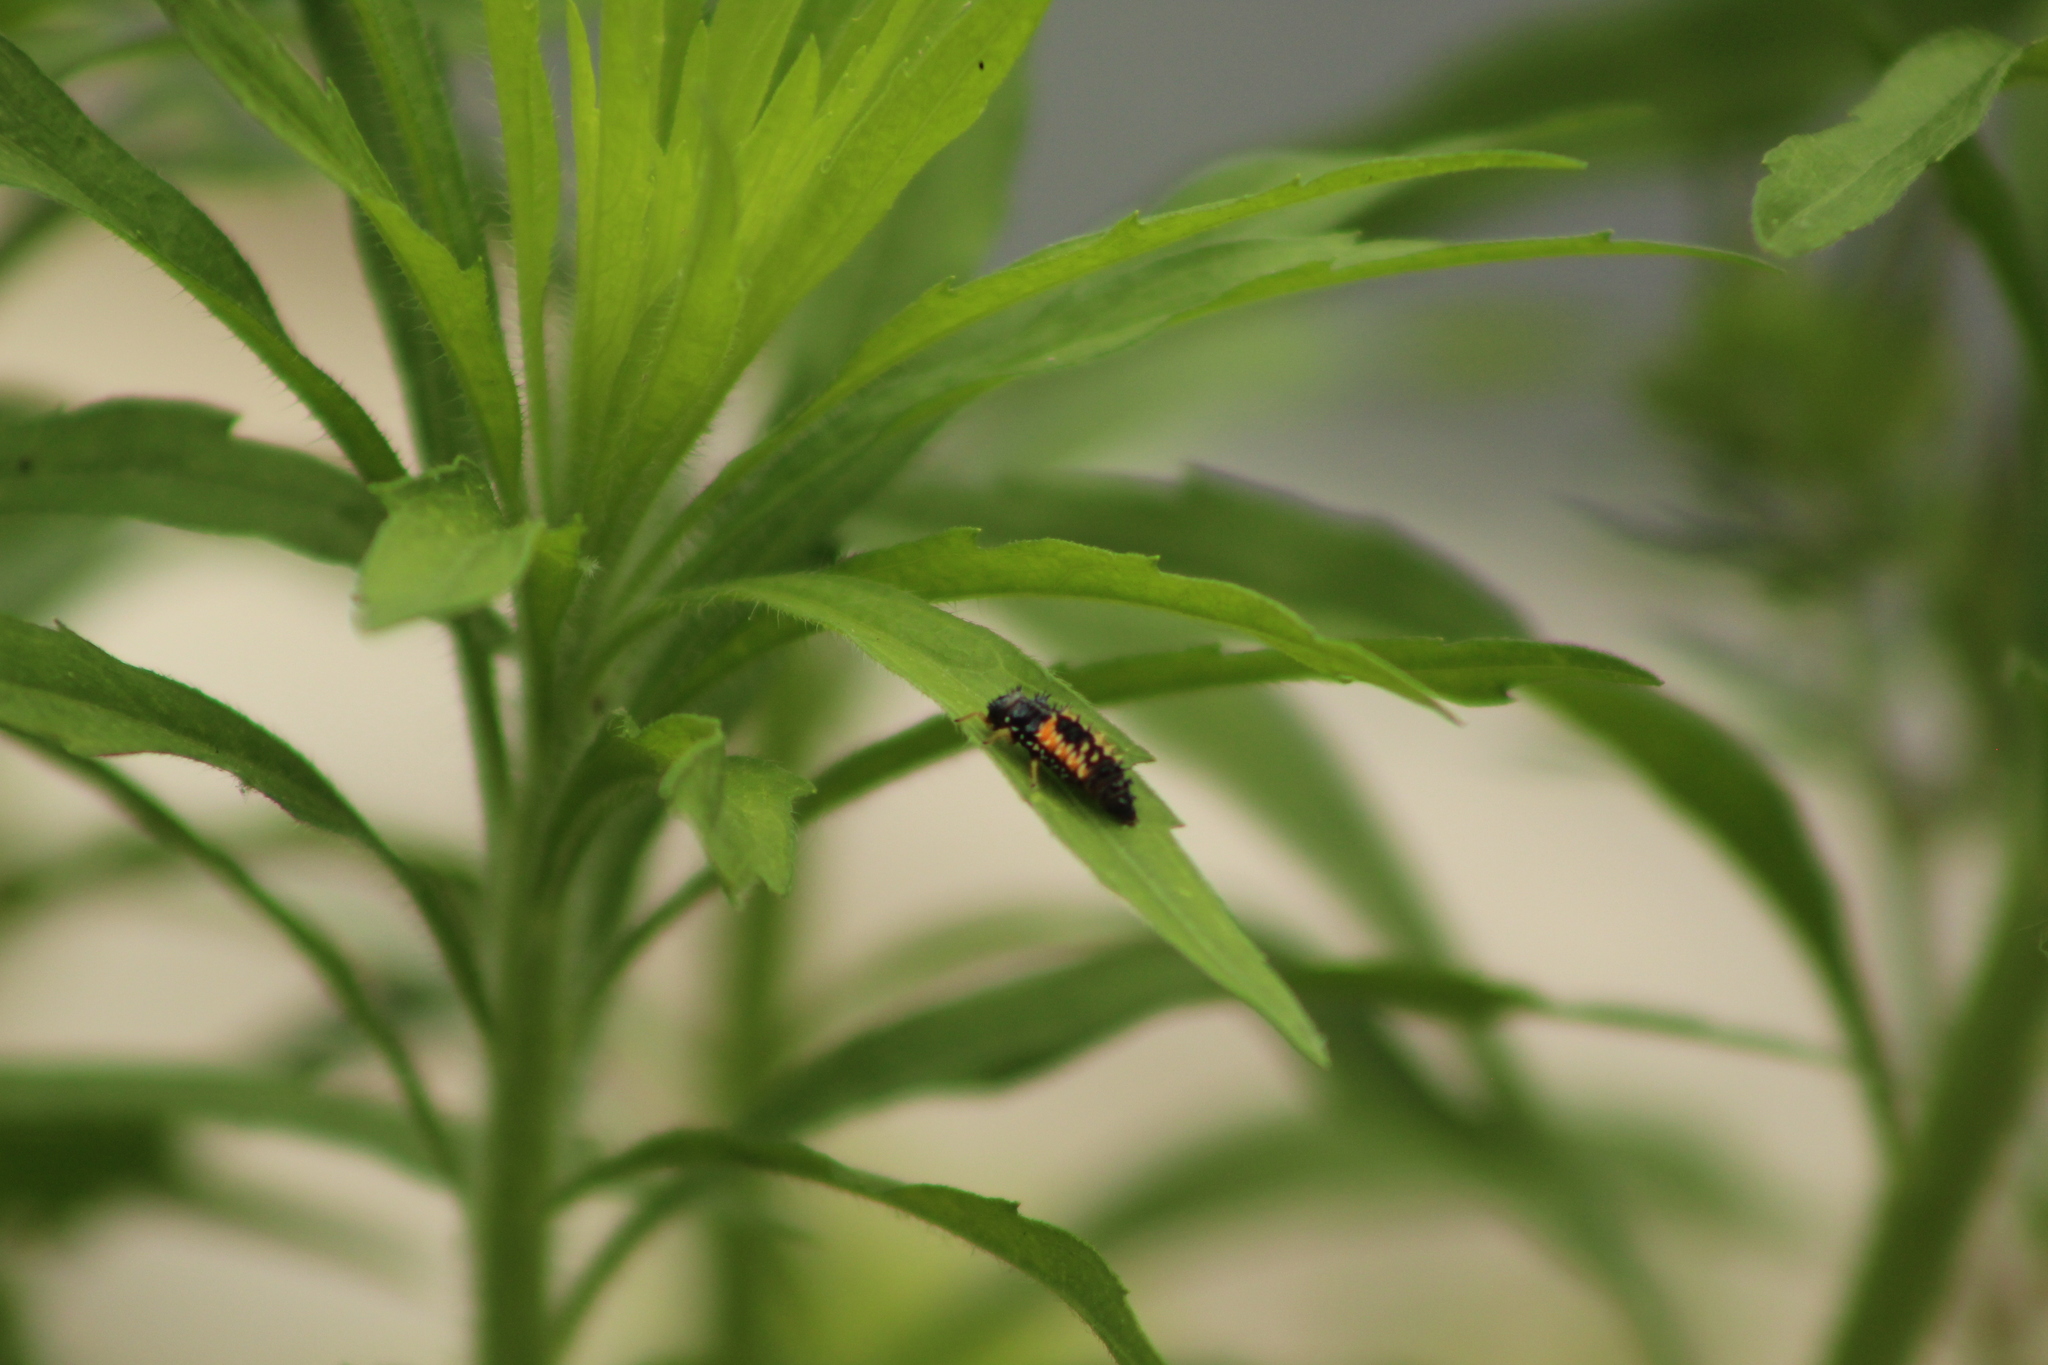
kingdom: Animalia
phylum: Arthropoda
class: Insecta
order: Coleoptera
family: Coccinellidae
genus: Harmonia
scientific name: Harmonia axyridis
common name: Harlequin ladybird
